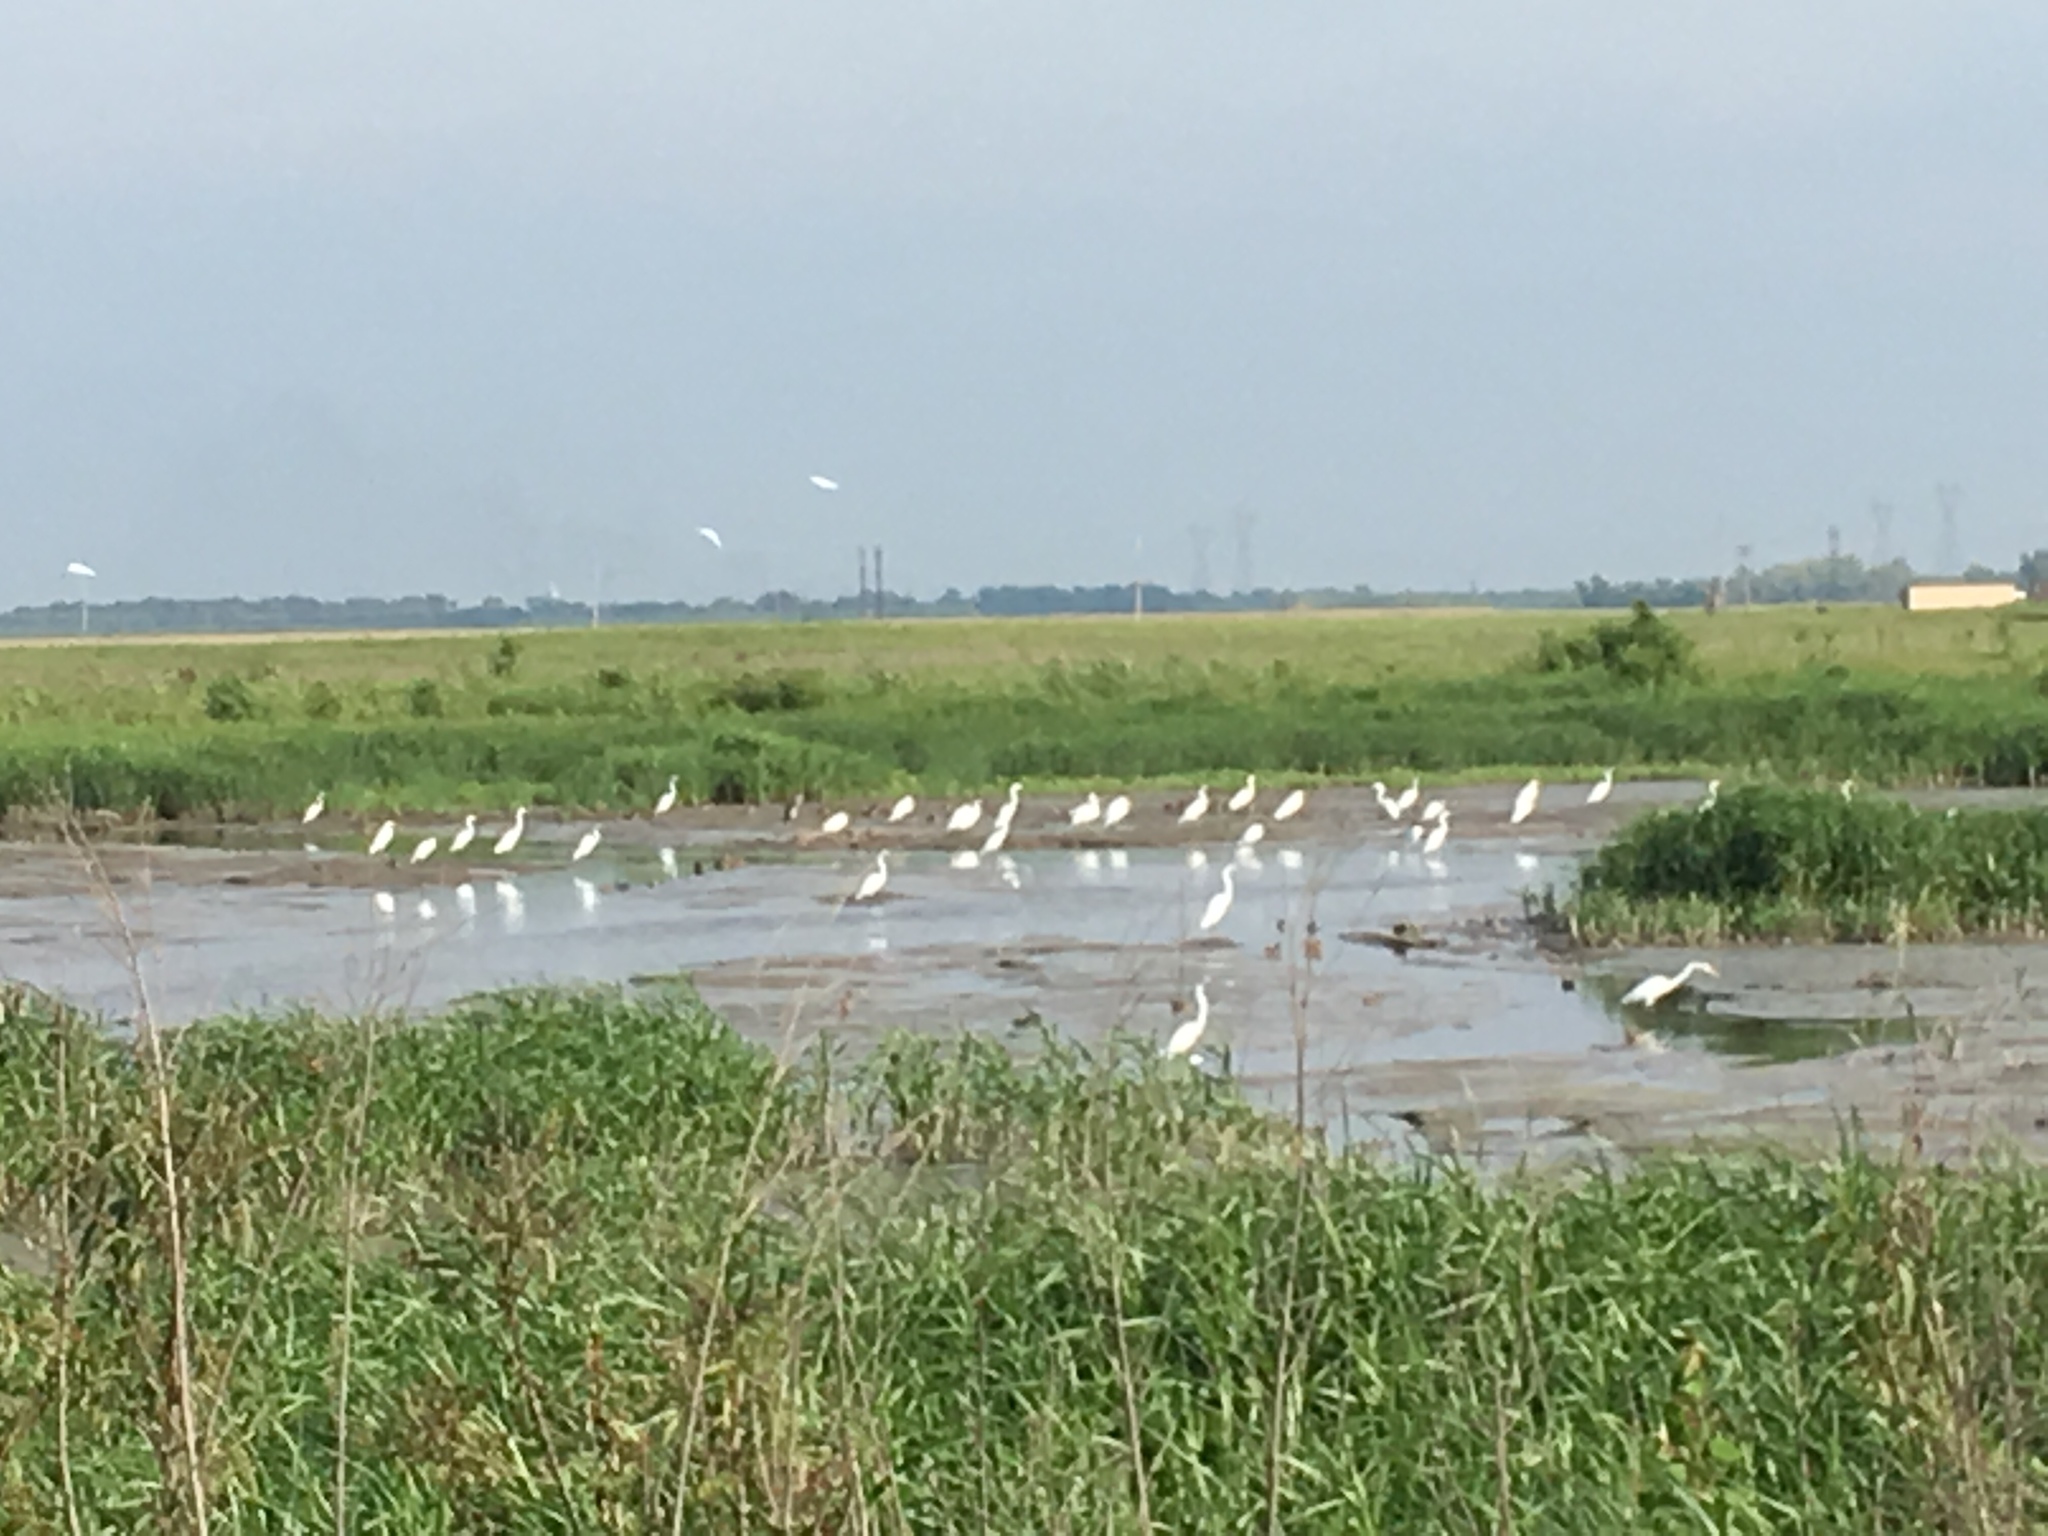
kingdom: Animalia
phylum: Chordata
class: Aves
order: Pelecaniformes
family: Ardeidae
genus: Ardea
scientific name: Ardea alba
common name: Great egret
